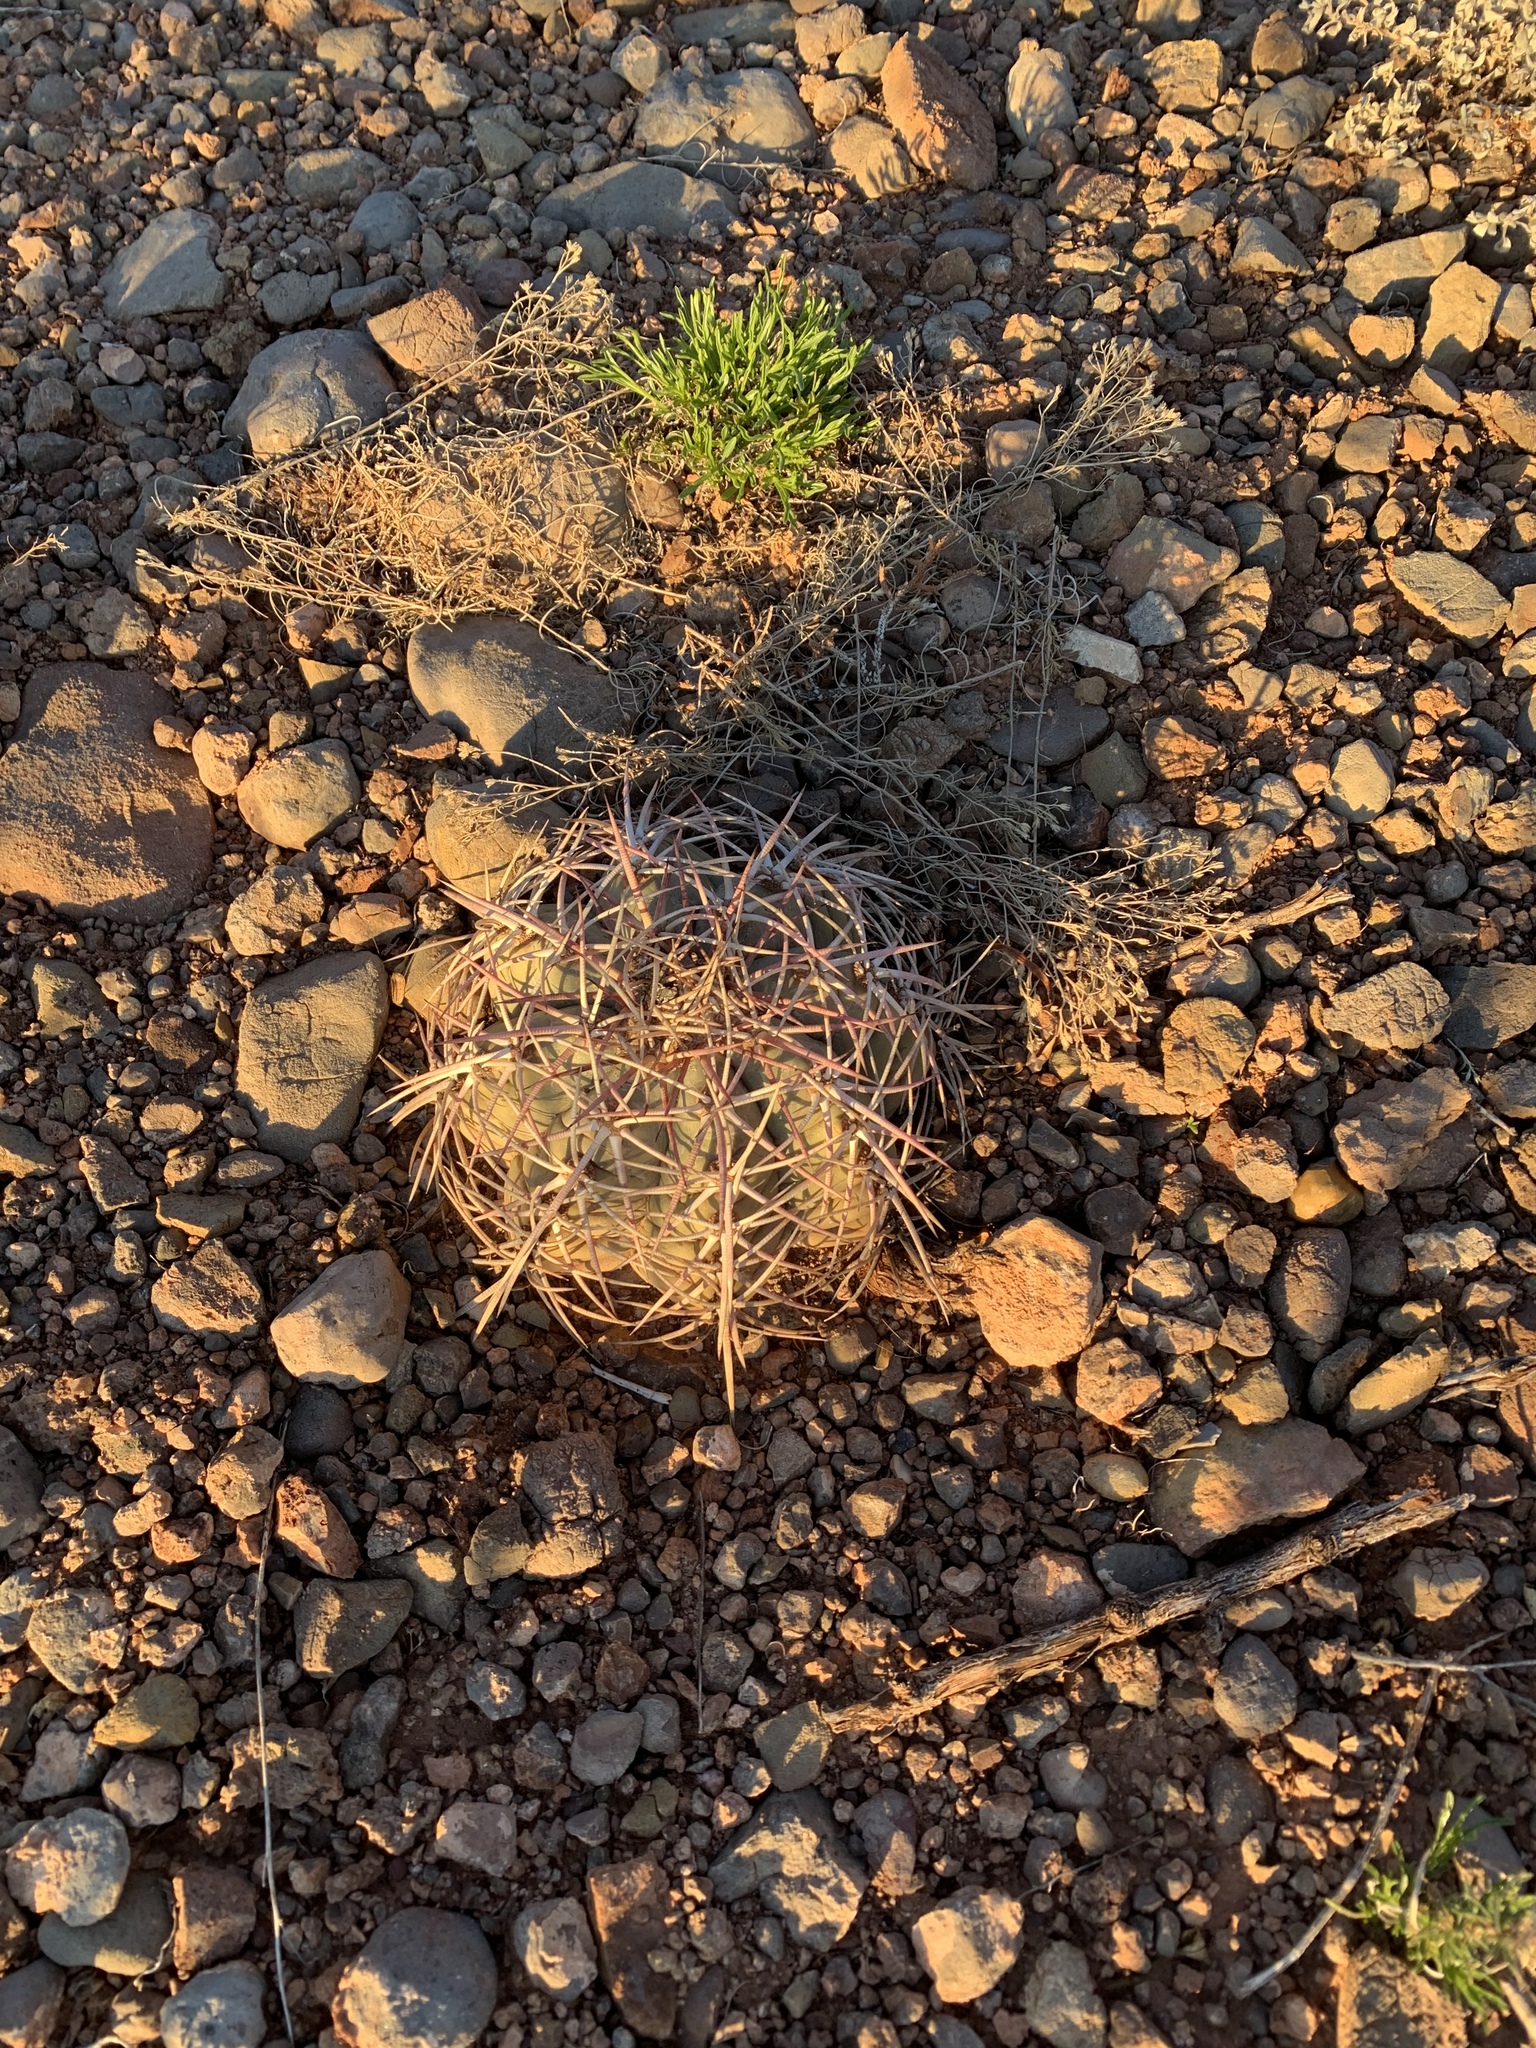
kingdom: Plantae
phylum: Tracheophyta
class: Magnoliopsida
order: Caryophyllales
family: Cactaceae
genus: Echinocactus
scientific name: Echinocactus horizonthalonius
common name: Devilshead
